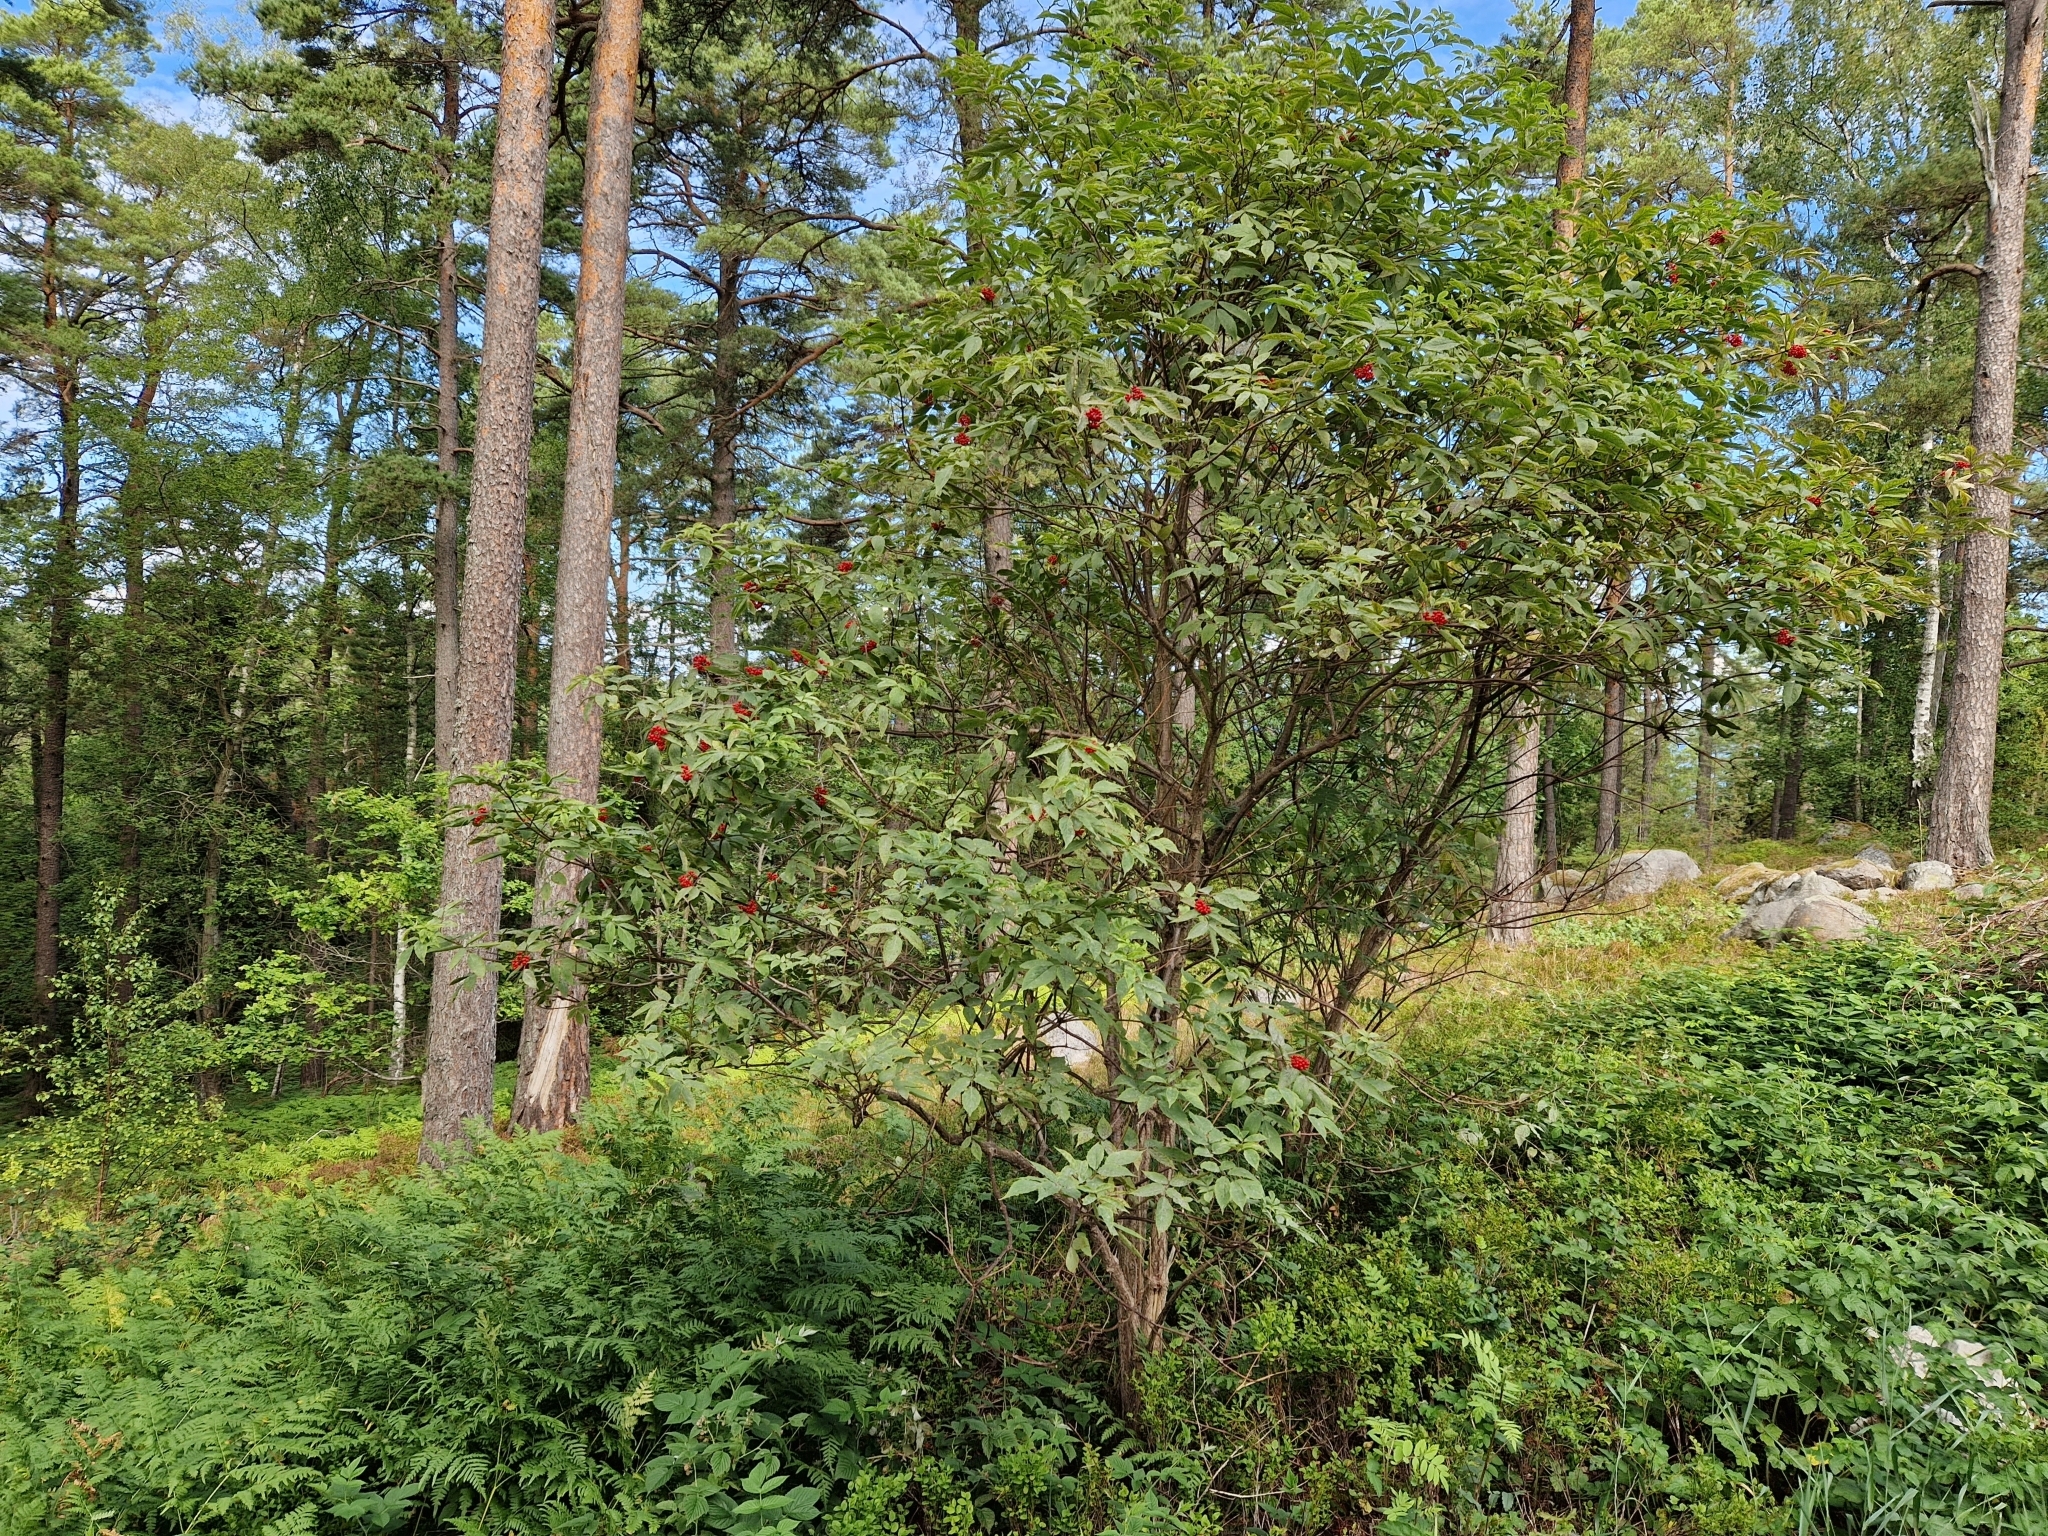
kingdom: Plantae
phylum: Tracheophyta
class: Magnoliopsida
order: Dipsacales
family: Viburnaceae
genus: Sambucus
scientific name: Sambucus racemosa
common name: Red-berried elder
